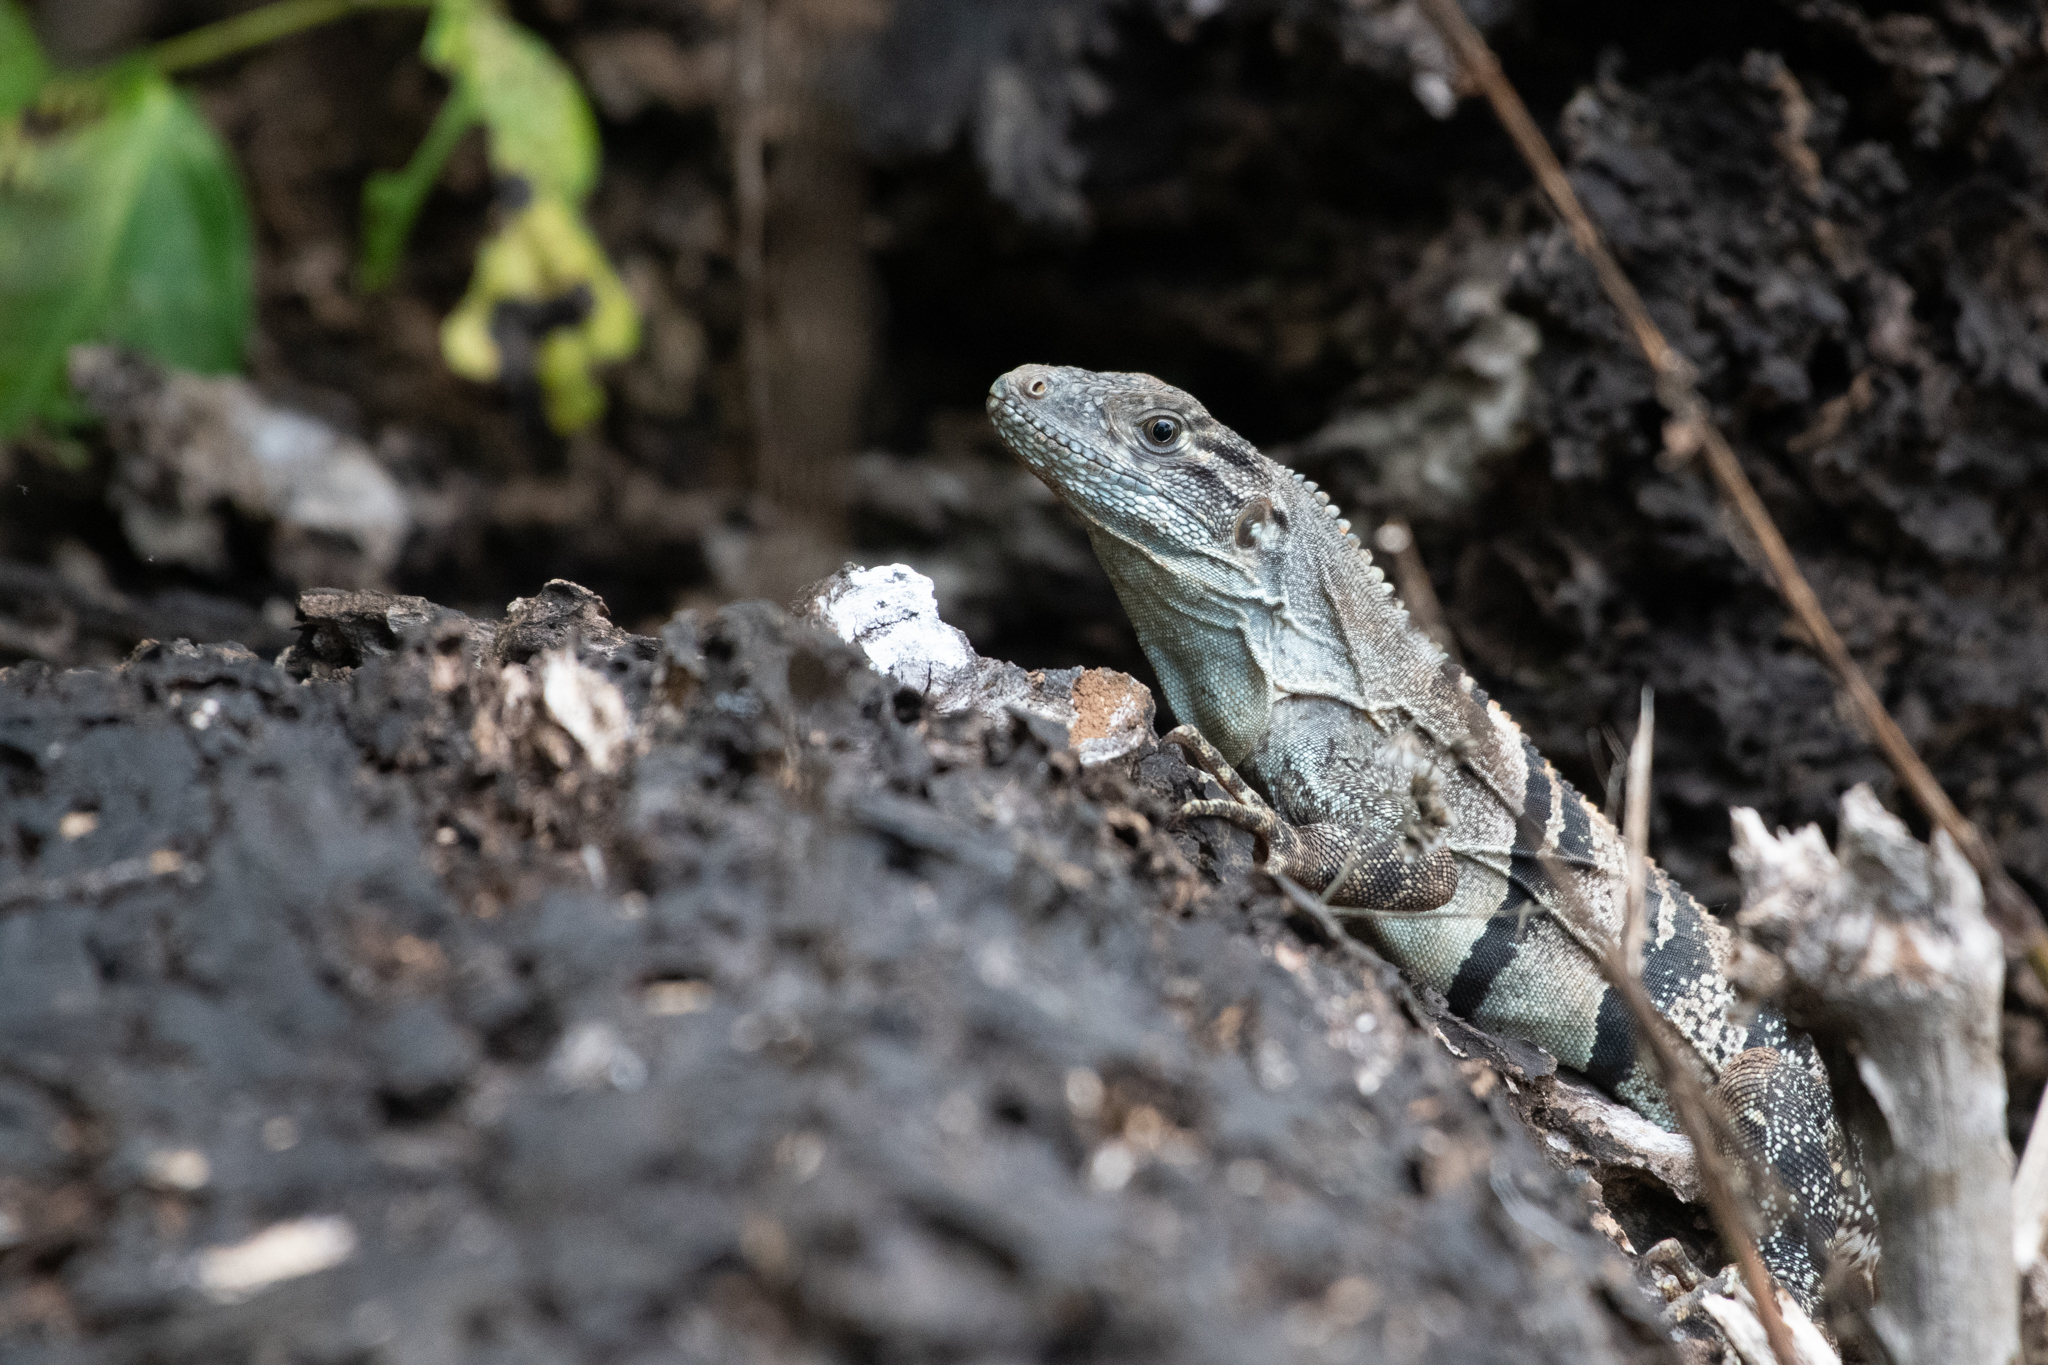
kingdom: Animalia
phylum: Chordata
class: Squamata
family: Iguanidae
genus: Ctenosaura
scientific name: Ctenosaura similis
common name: Black spiny-tailed iguana
